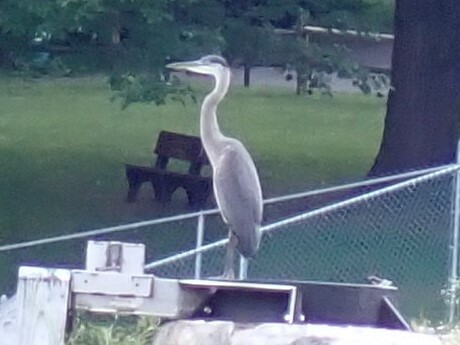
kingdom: Animalia
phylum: Chordata
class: Aves
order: Pelecaniformes
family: Ardeidae
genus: Ardea
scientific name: Ardea herodias
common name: Great blue heron
